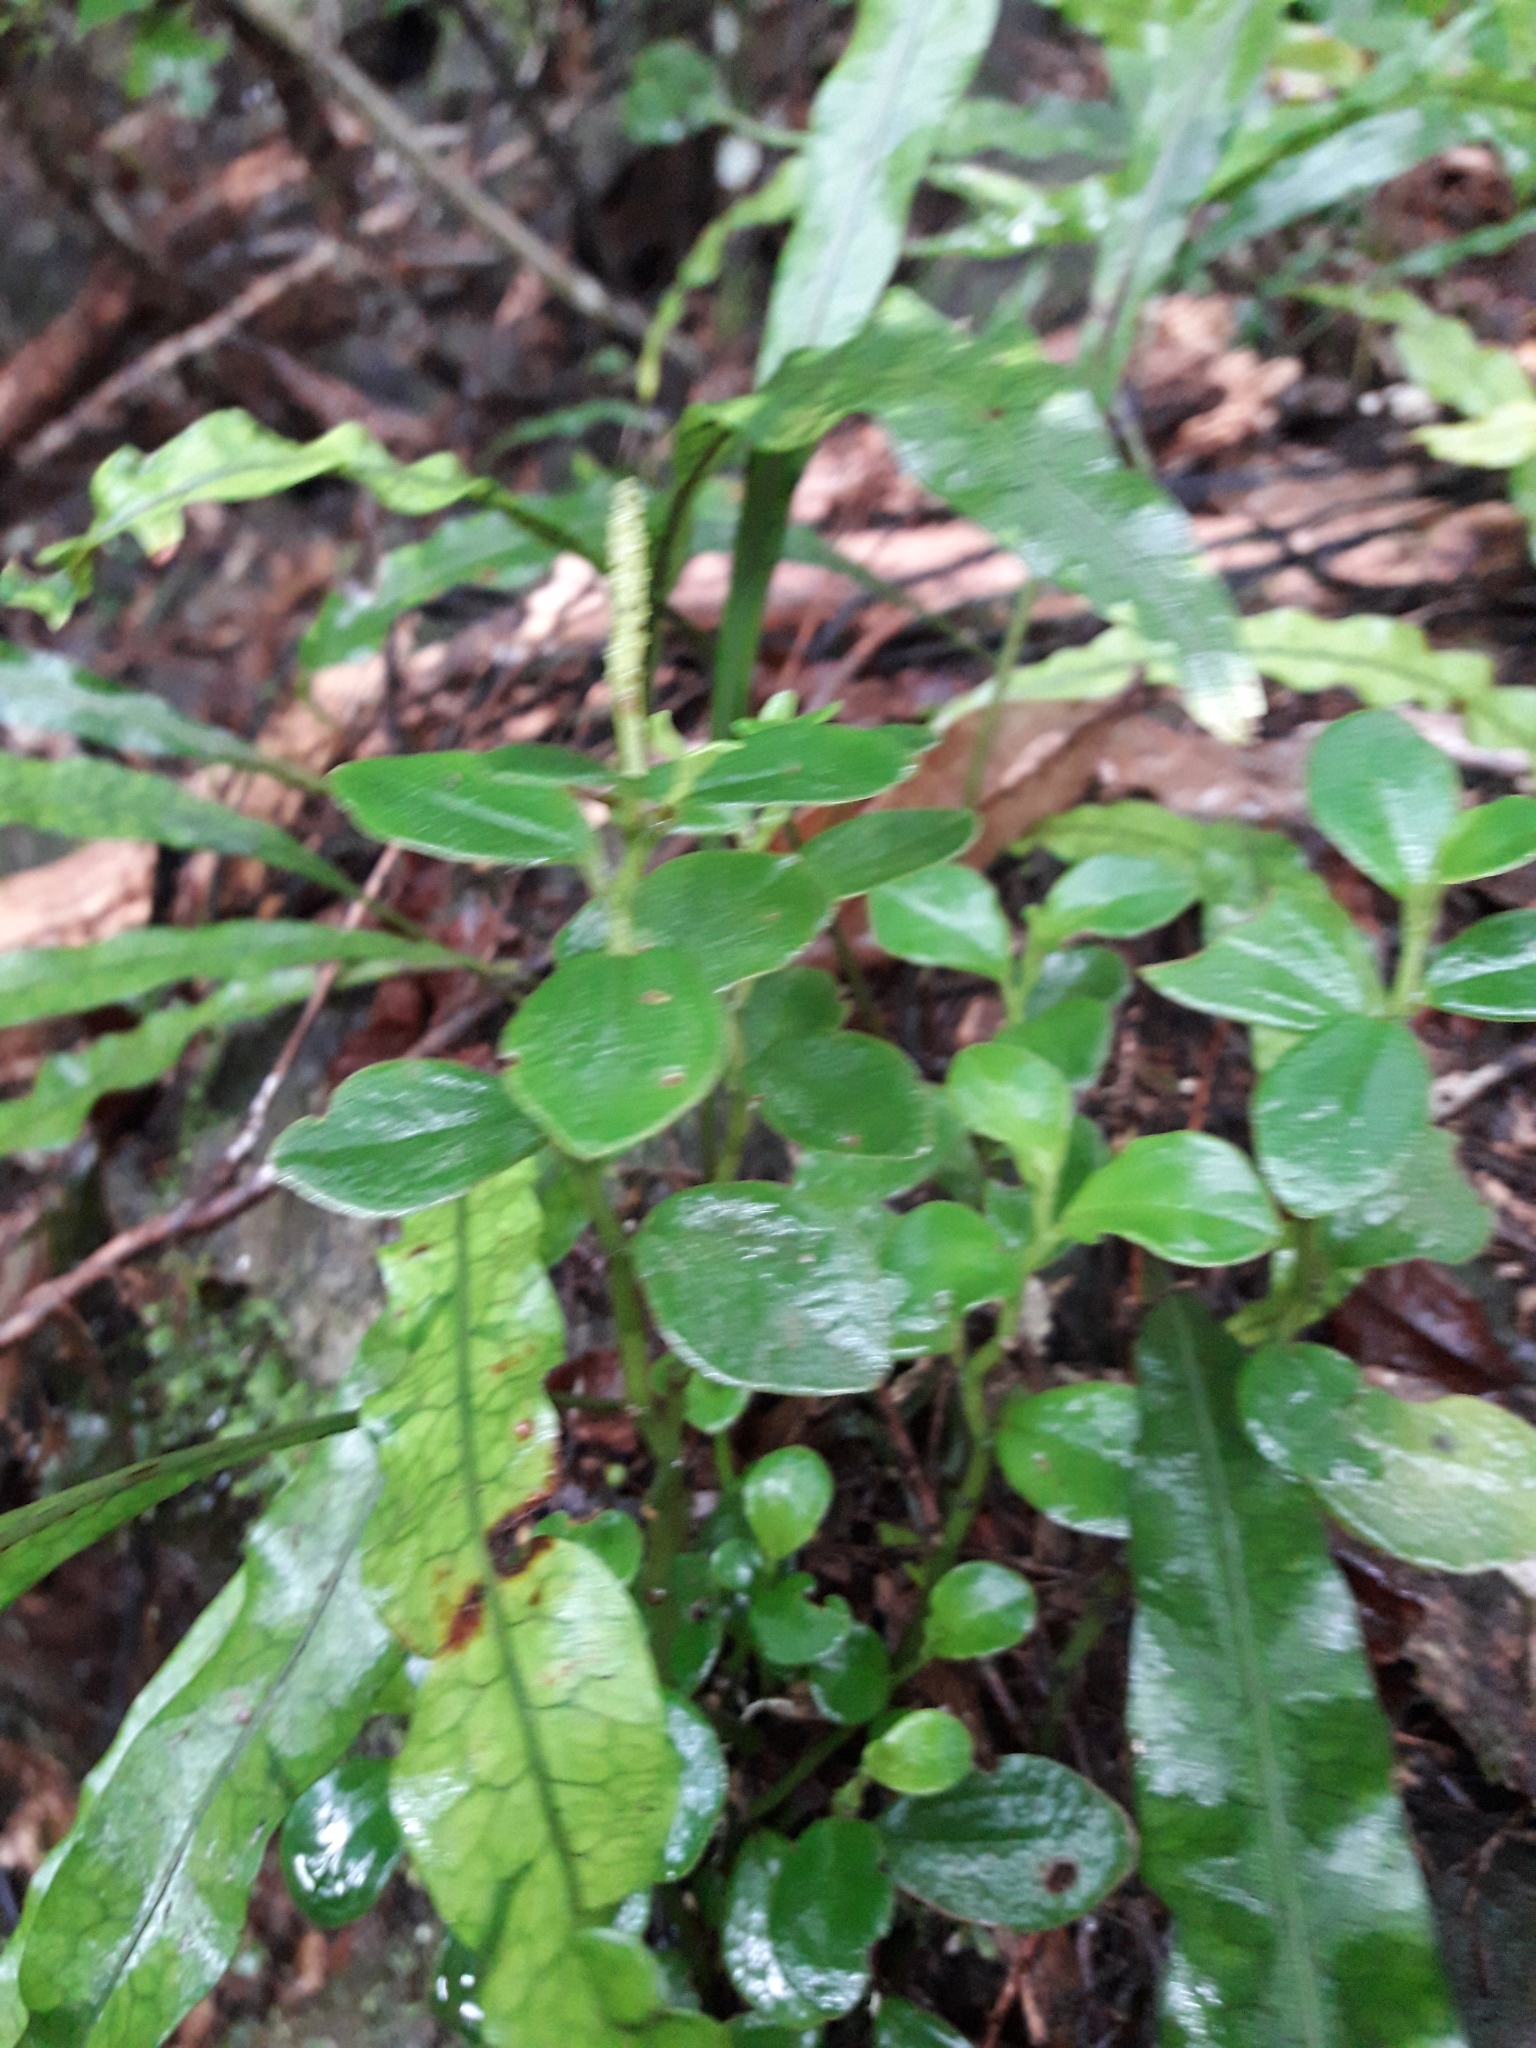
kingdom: Plantae
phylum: Tracheophyta
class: Magnoliopsida
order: Piperales
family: Piperaceae
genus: Peperomia
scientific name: Peperomia urvilleana
